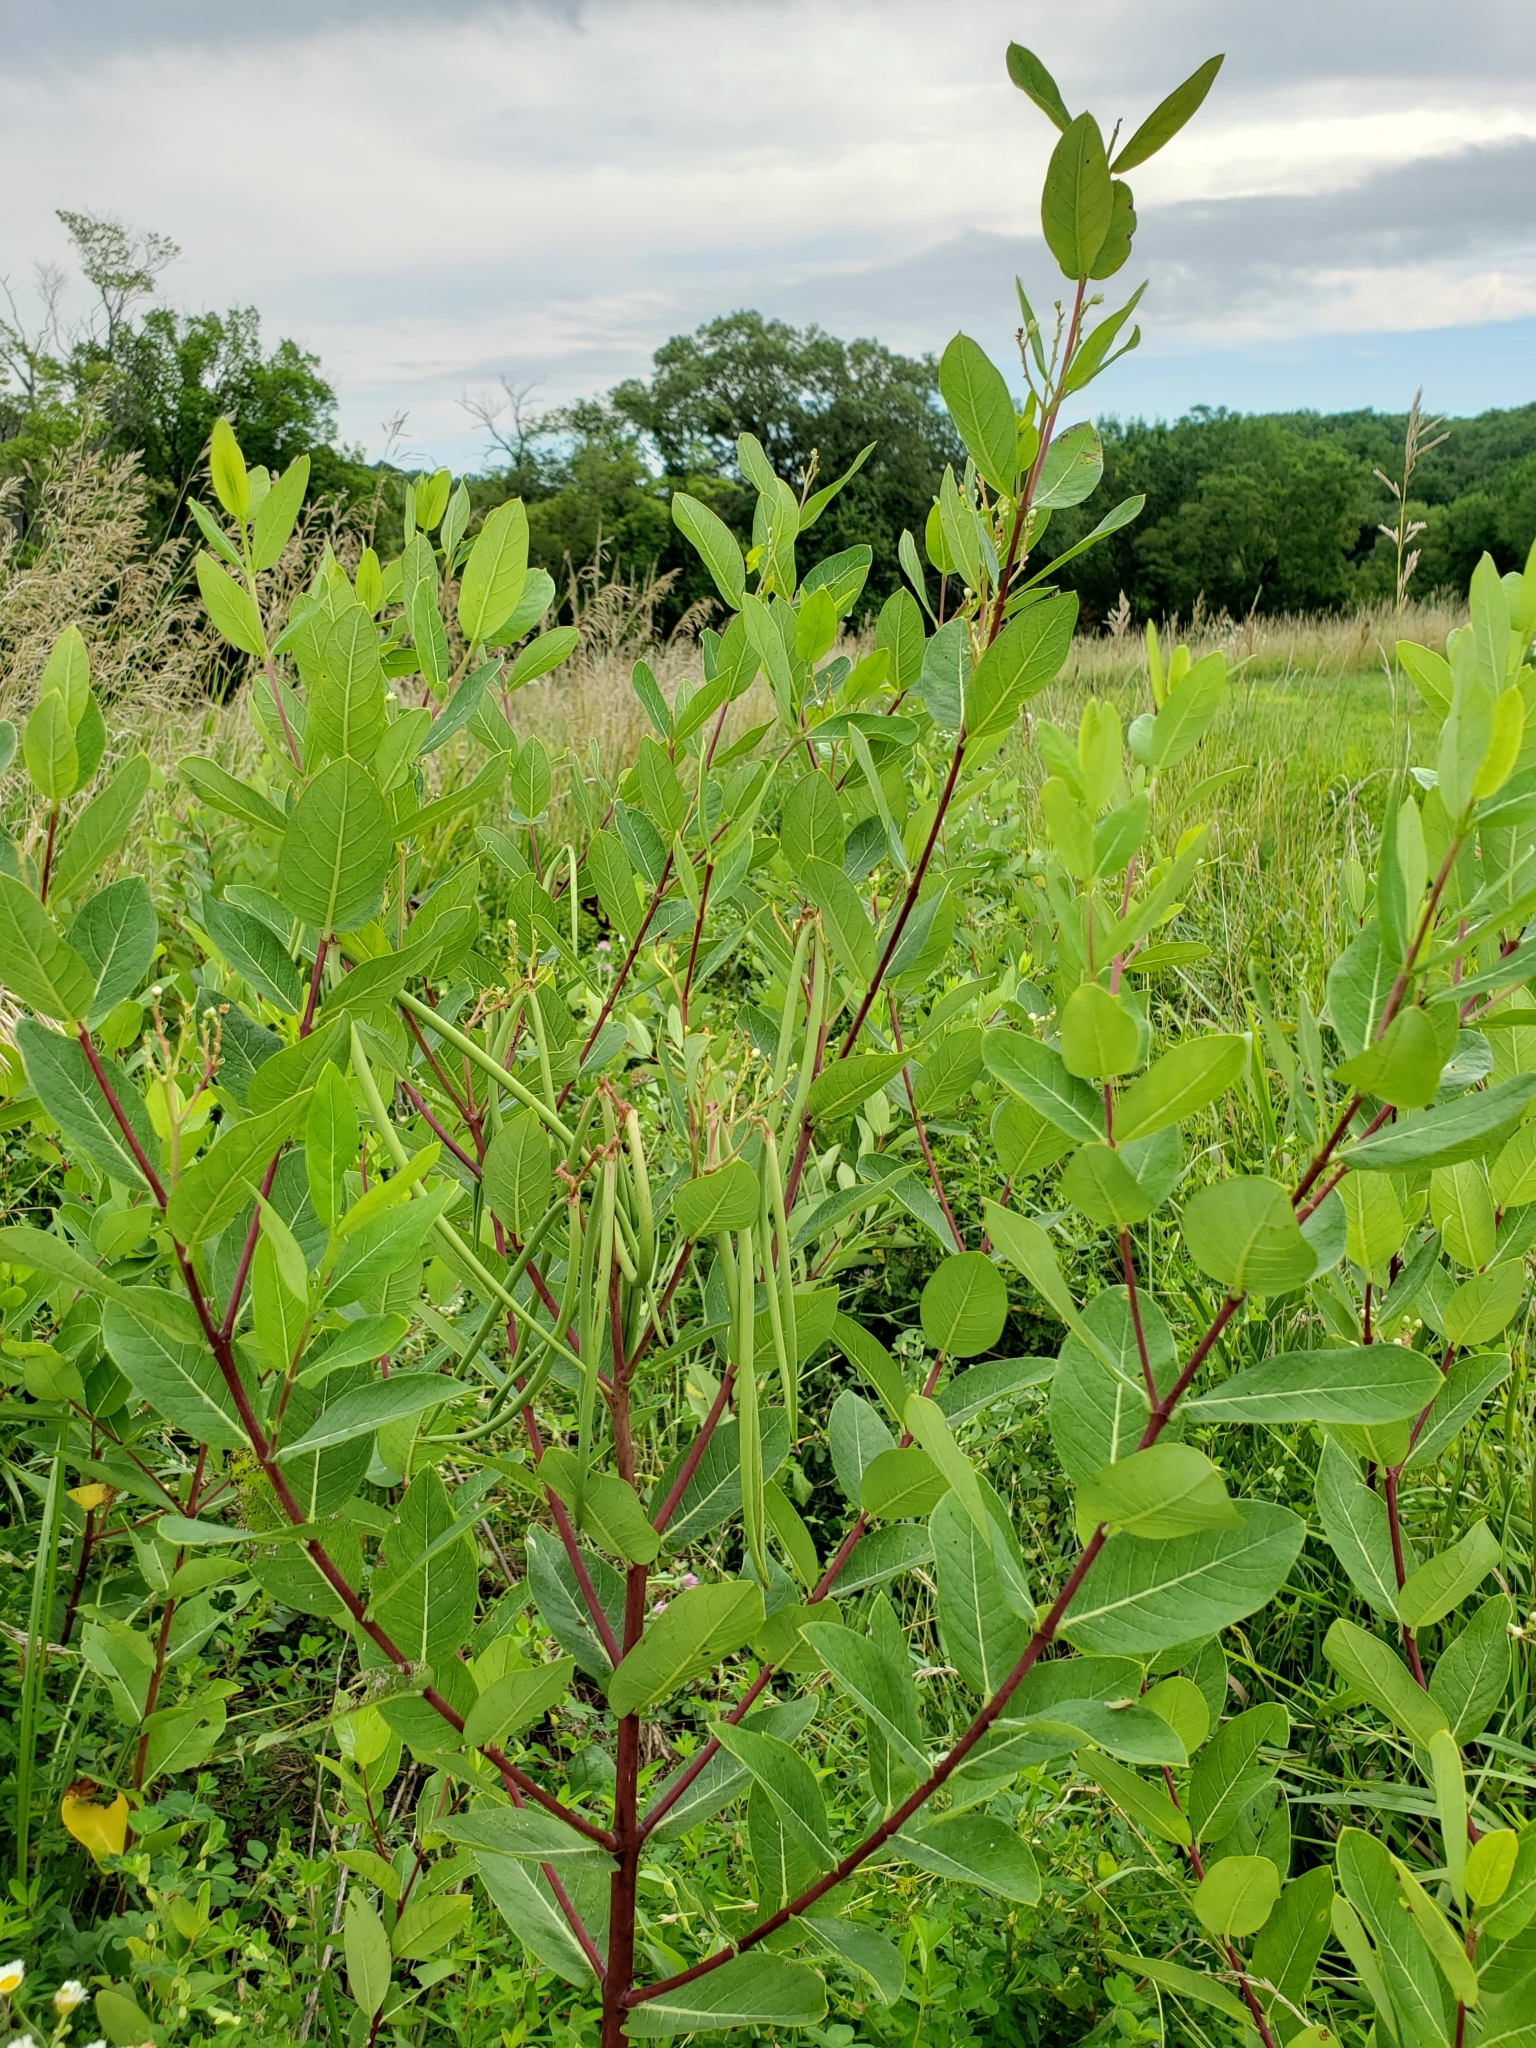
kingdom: Plantae
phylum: Tracheophyta
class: Magnoliopsida
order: Gentianales
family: Apocynaceae
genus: Apocynum
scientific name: Apocynum cannabinum
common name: Hemp dogbane
